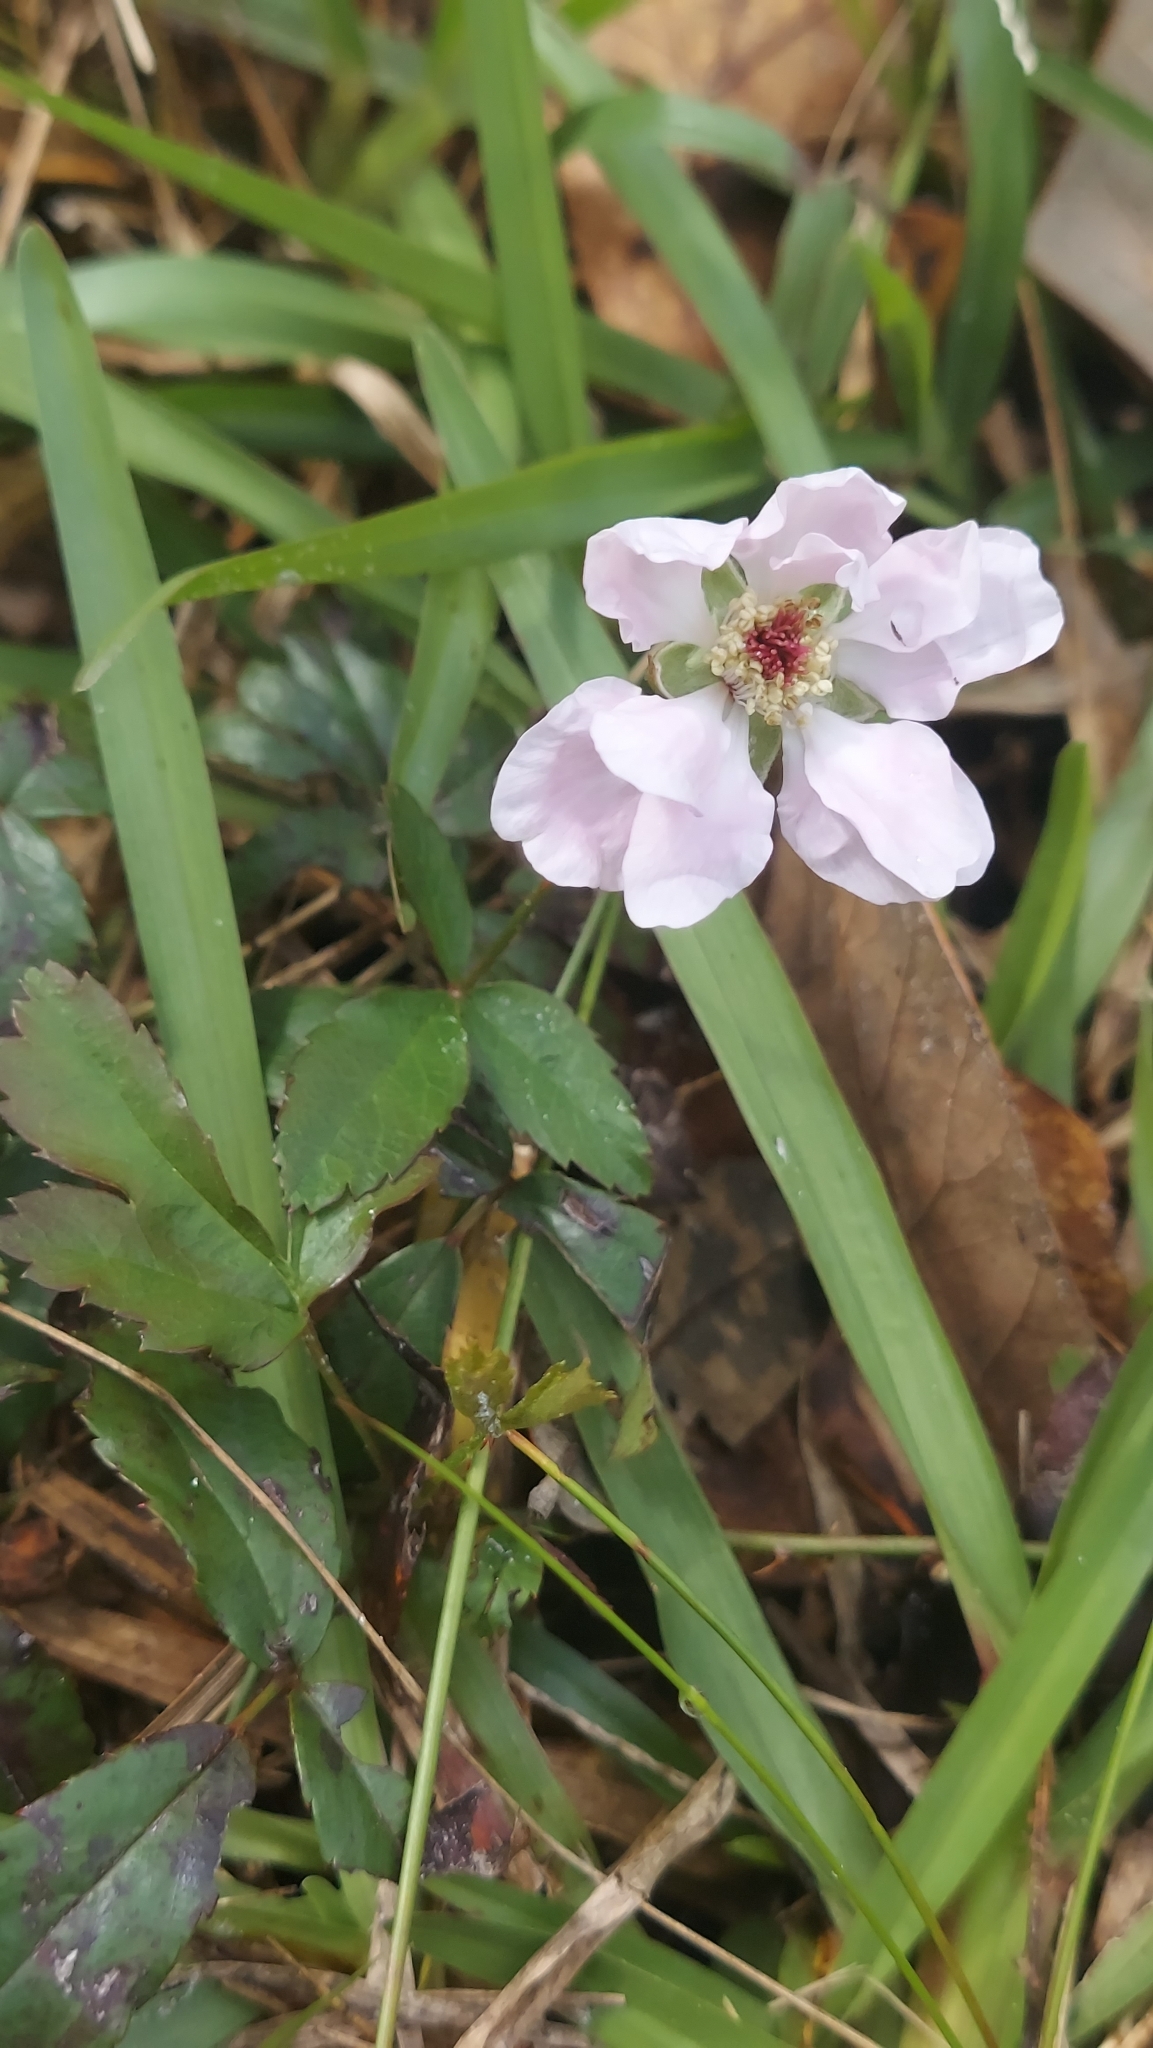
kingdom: Plantae
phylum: Tracheophyta
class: Magnoliopsida
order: Rosales
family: Rosaceae
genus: Rubus
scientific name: Rubus trivialis
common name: Southern dewberry
